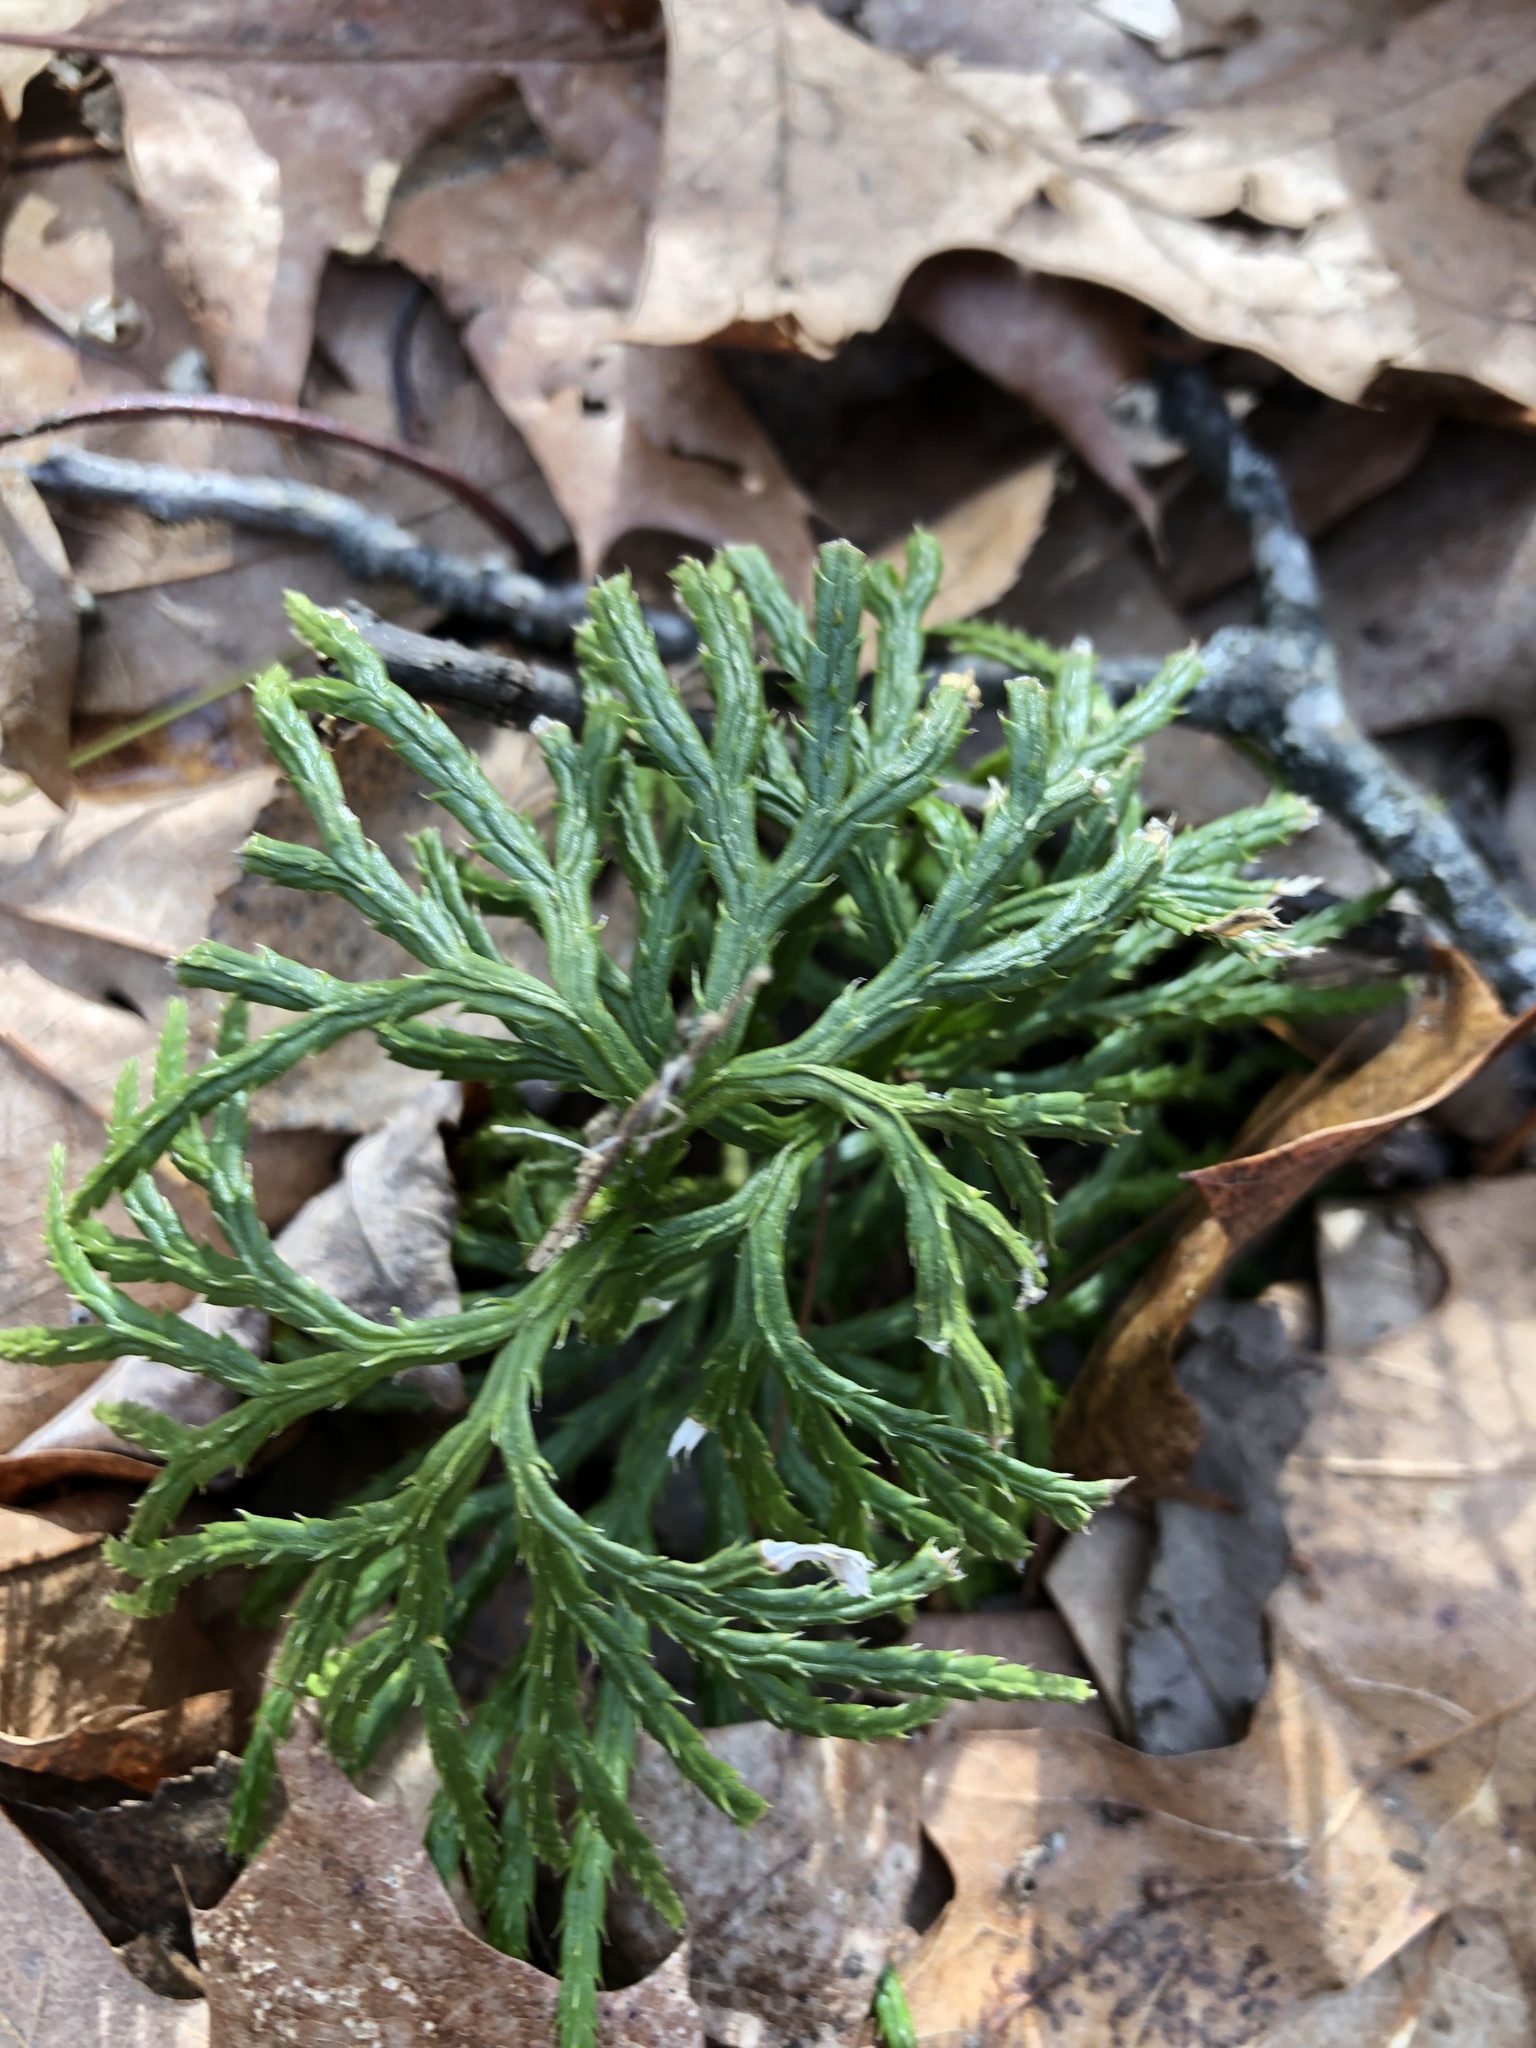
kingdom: Plantae
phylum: Tracheophyta
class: Lycopodiopsida
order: Lycopodiales
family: Lycopodiaceae
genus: Diphasiastrum
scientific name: Diphasiastrum digitatum
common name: Southern running-pine
